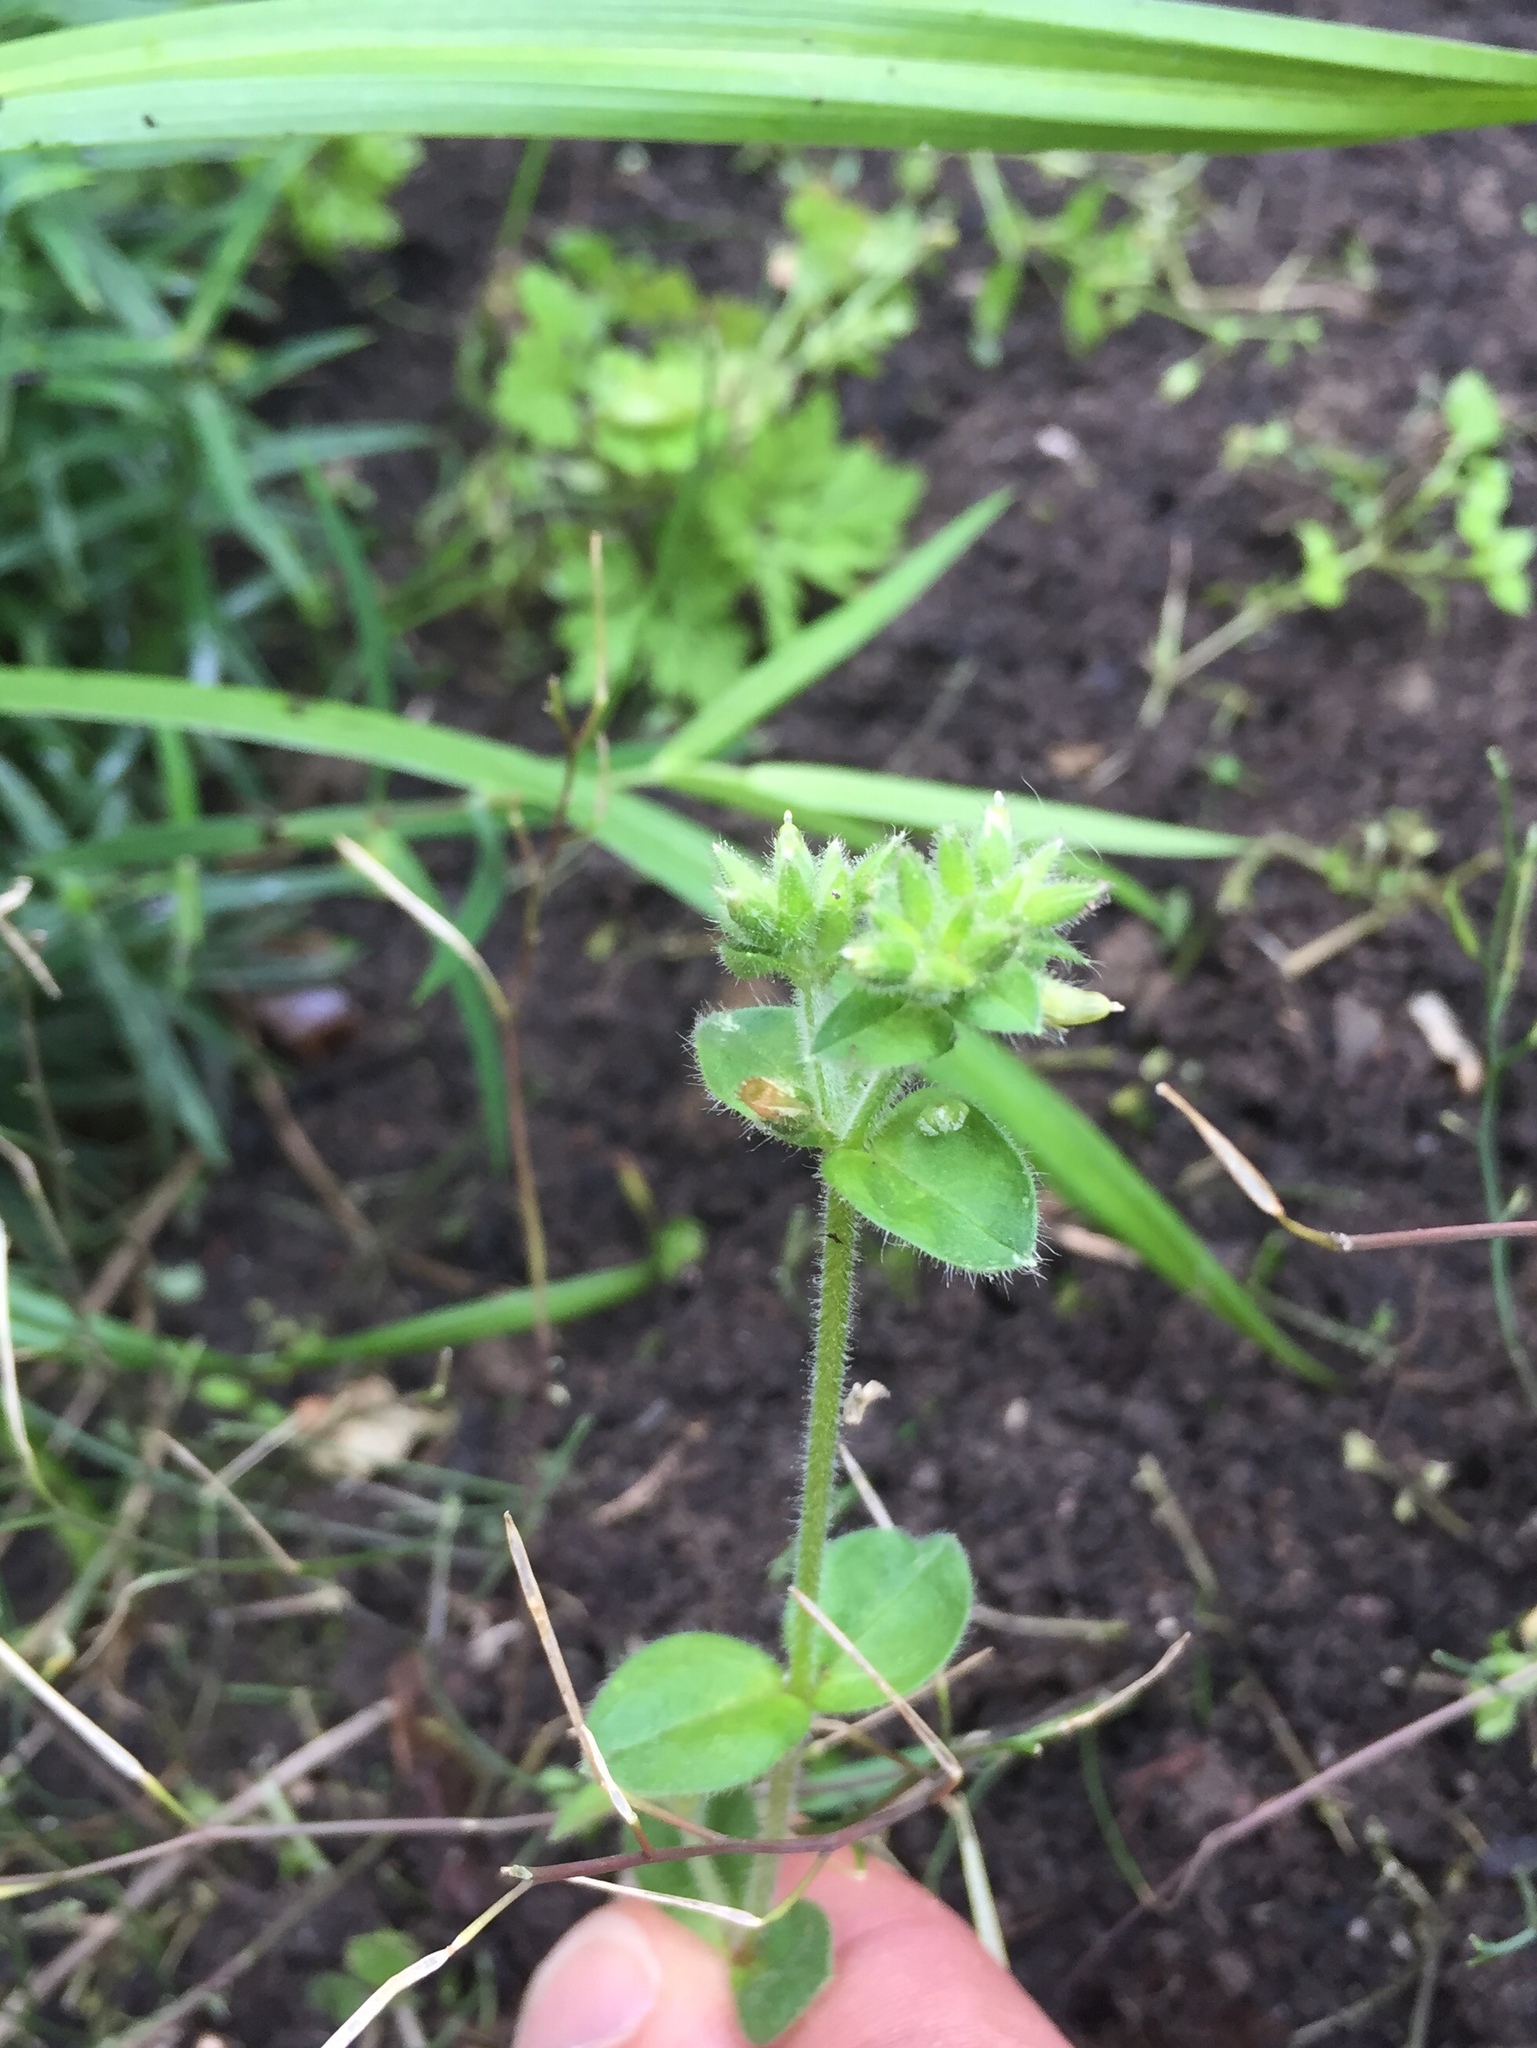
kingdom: Plantae
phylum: Tracheophyta
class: Magnoliopsida
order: Caryophyllales
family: Caryophyllaceae
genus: Cerastium
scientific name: Cerastium glomeratum
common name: Sticky chickweed
